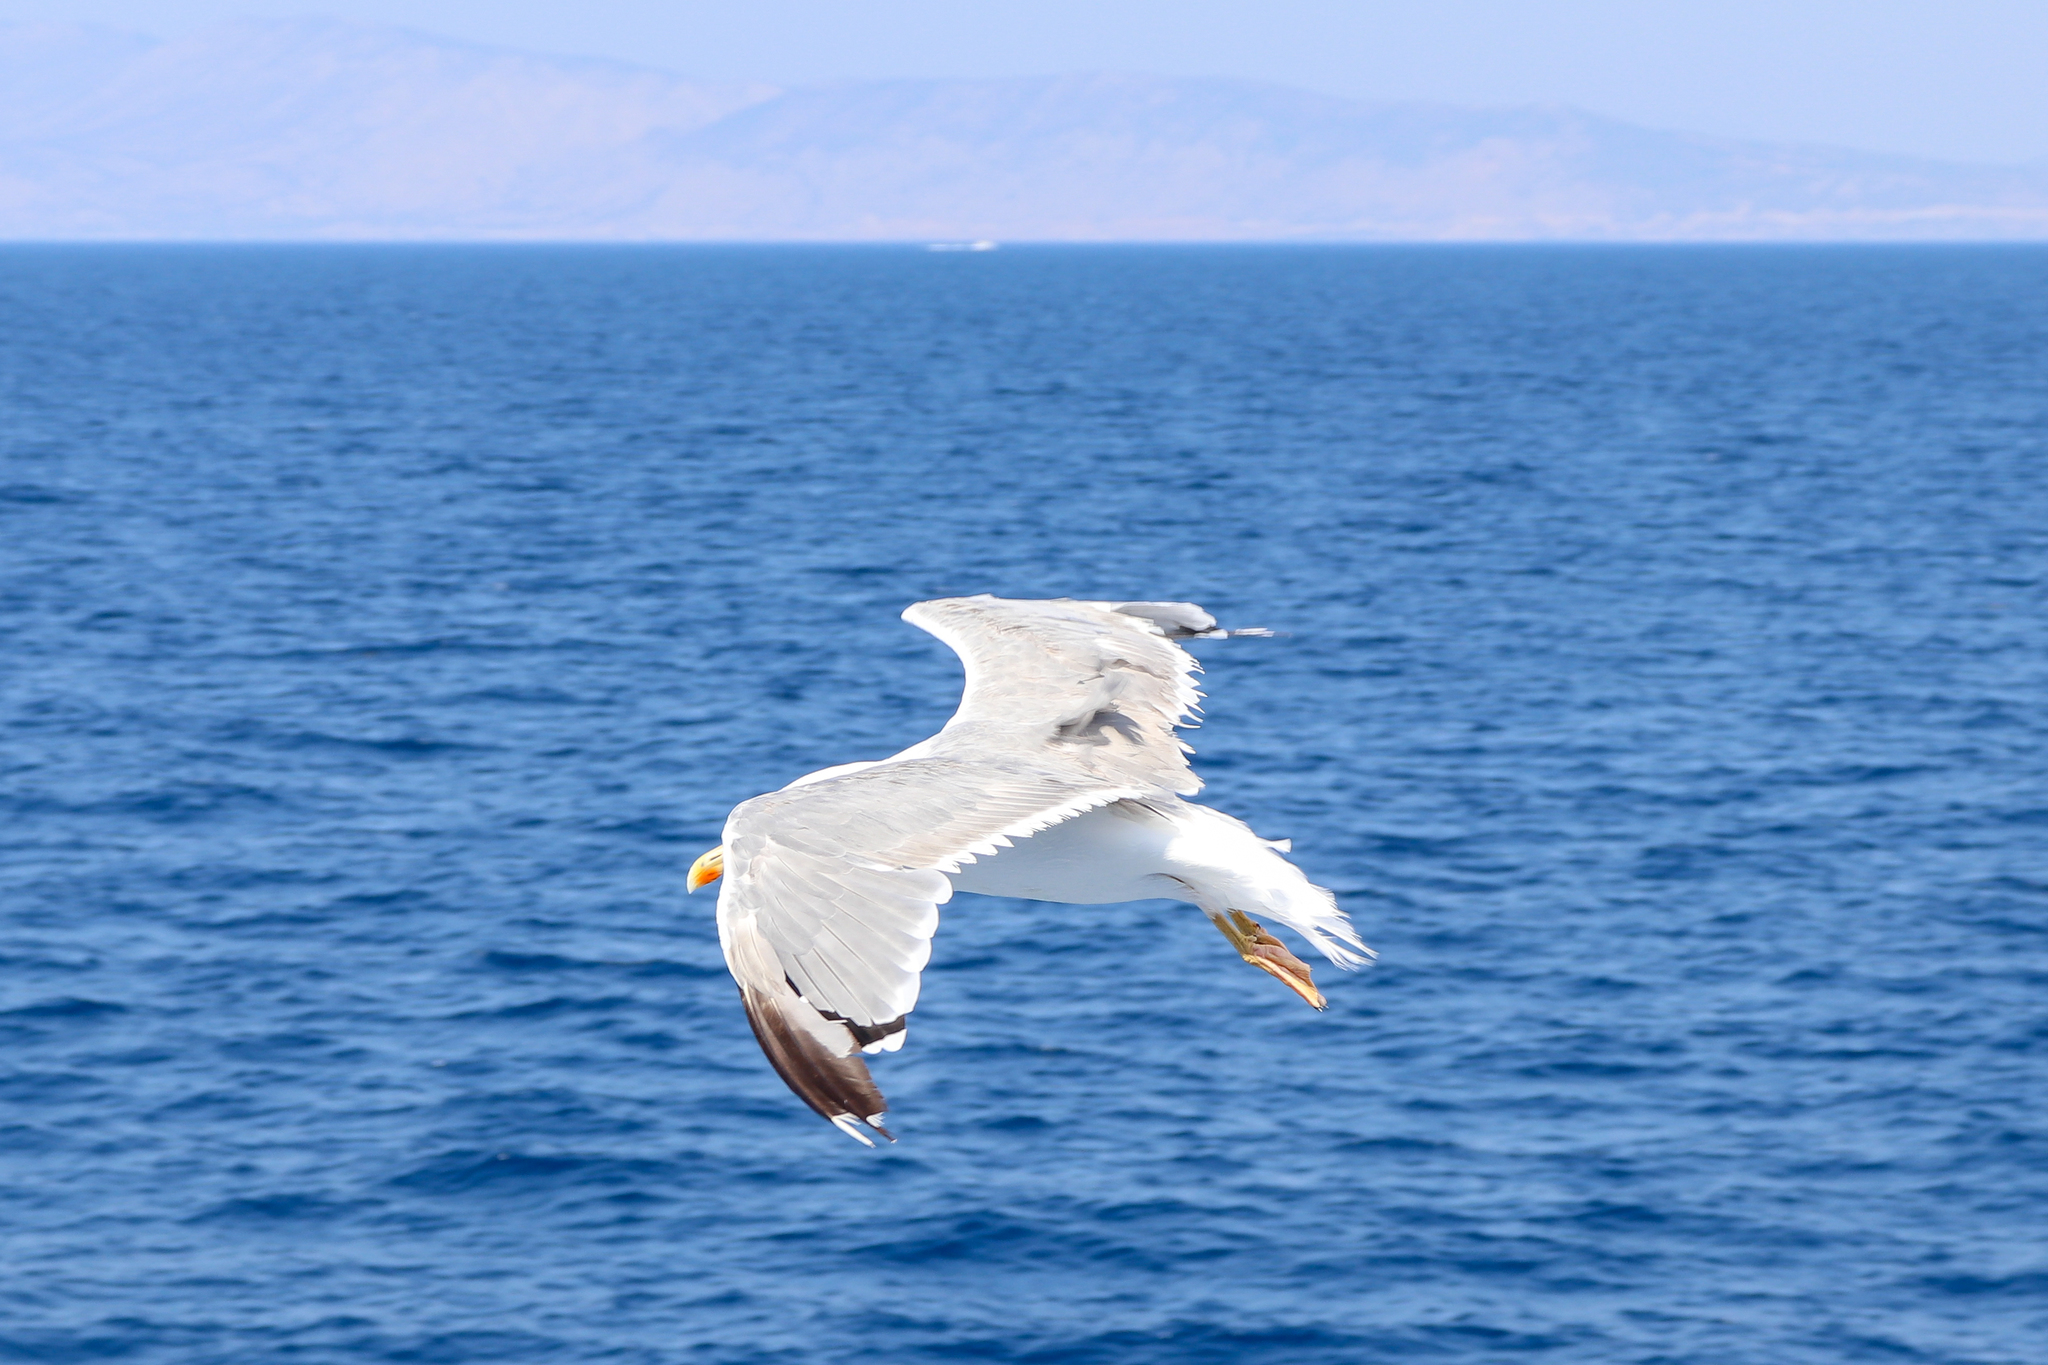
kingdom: Animalia
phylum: Chordata
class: Aves
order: Charadriiformes
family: Laridae
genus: Larus
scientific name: Larus michahellis
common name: Yellow-legged gull
